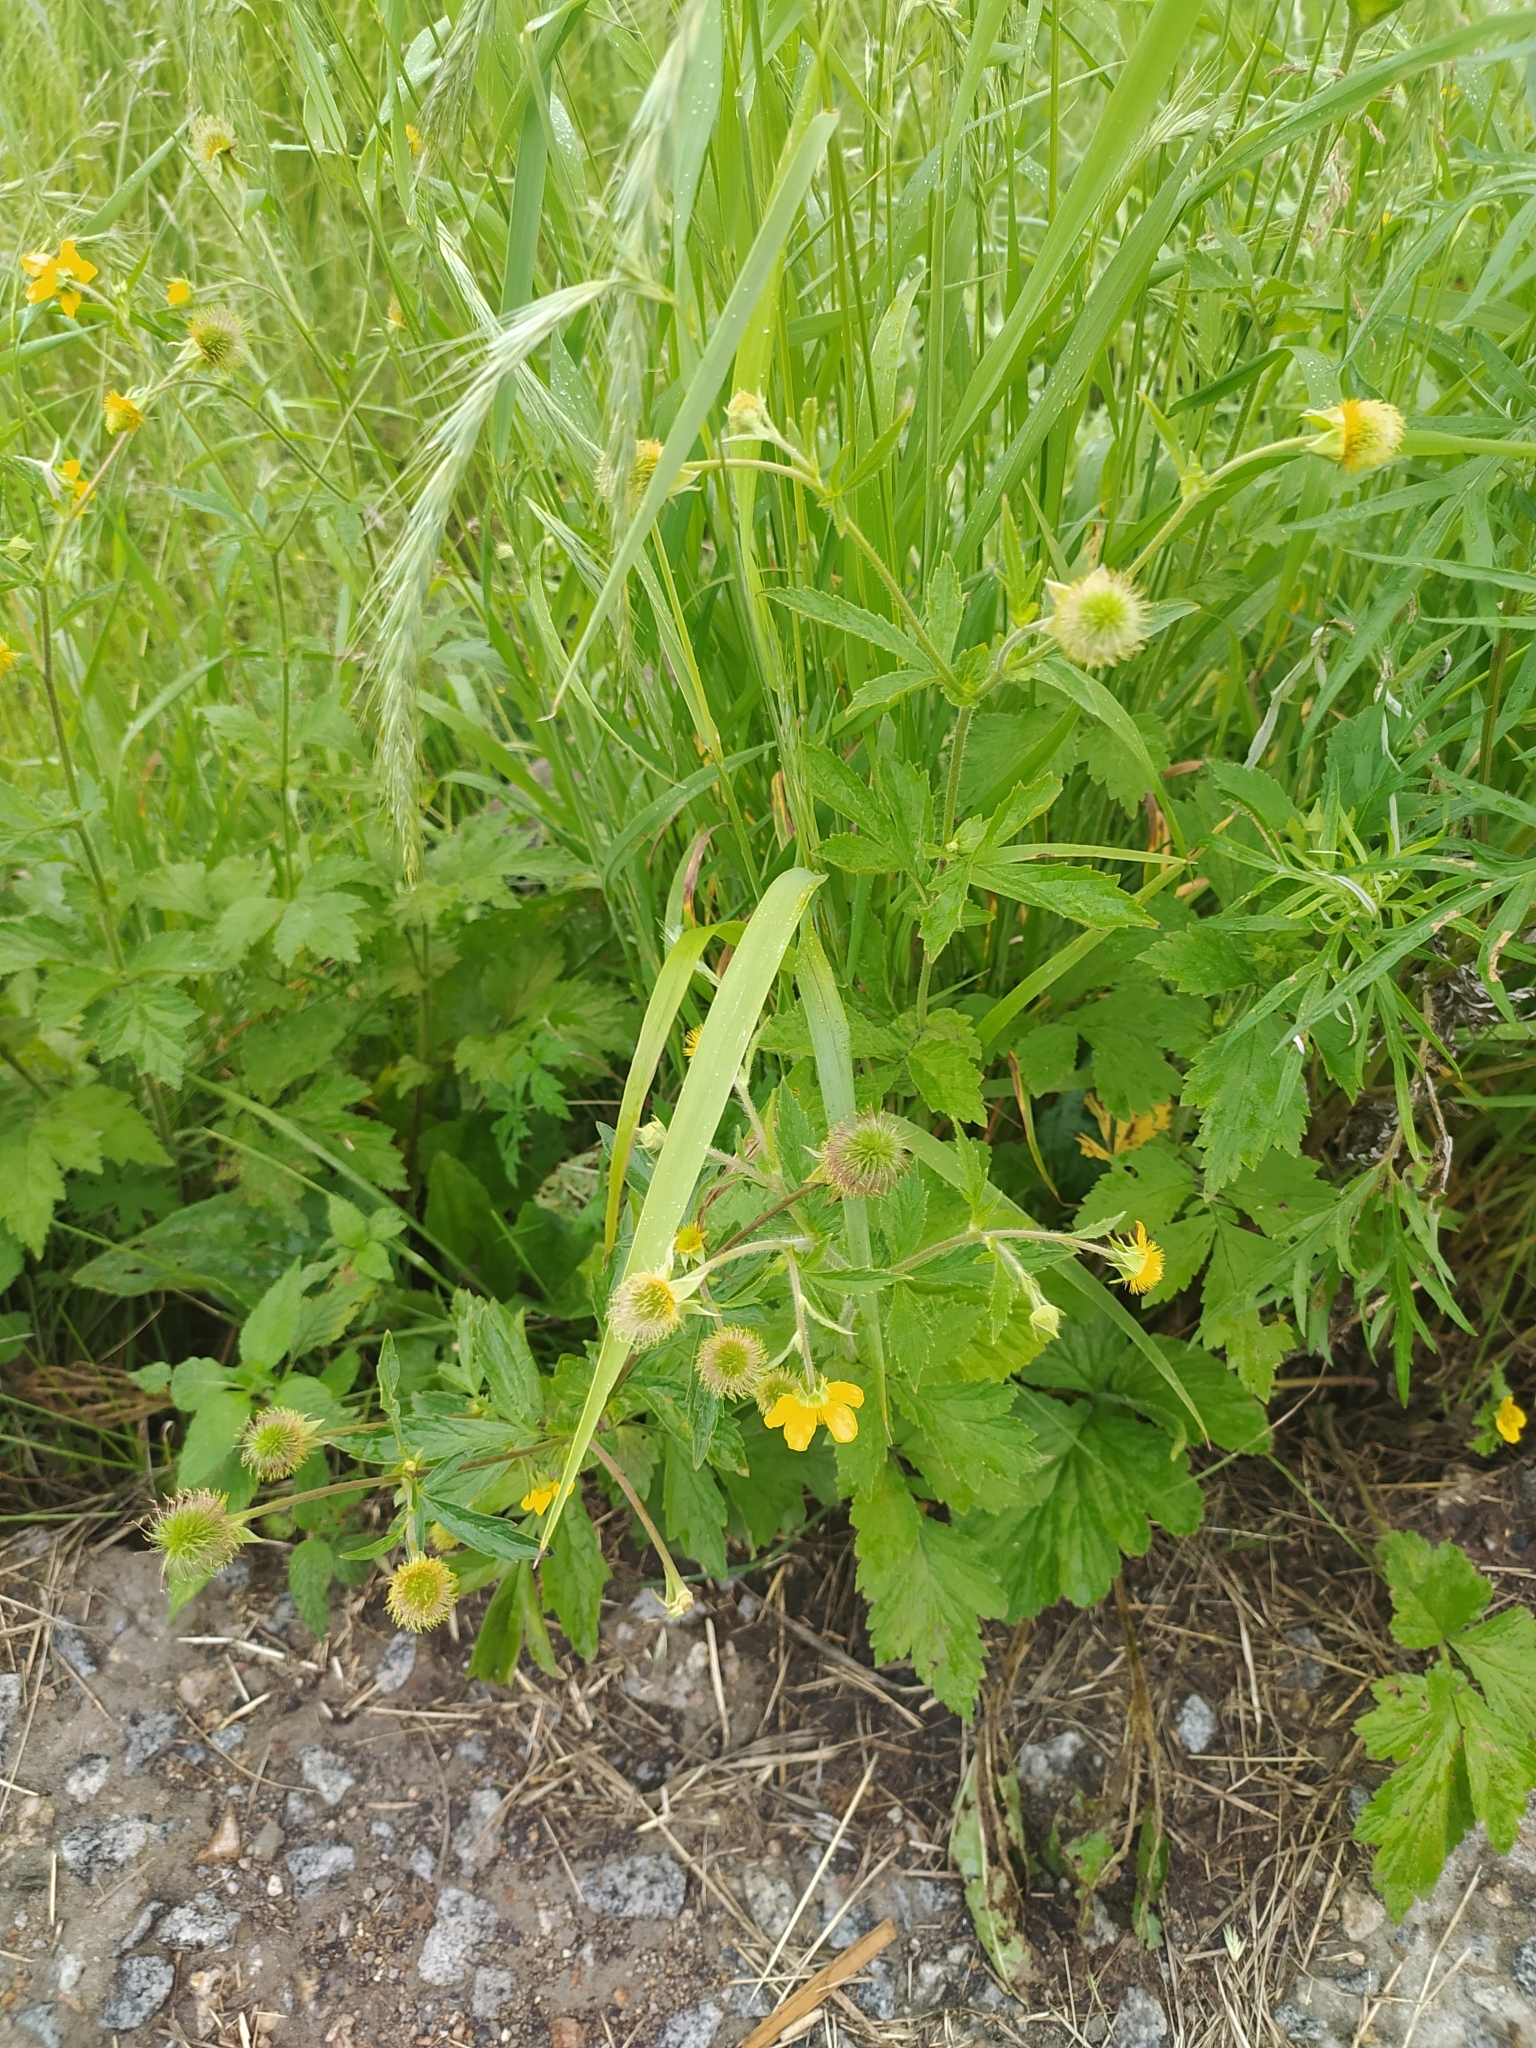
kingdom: Plantae
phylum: Tracheophyta
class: Magnoliopsida
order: Rosales
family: Rosaceae
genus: Geum
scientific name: Geum aleppicum
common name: Yellow avens
